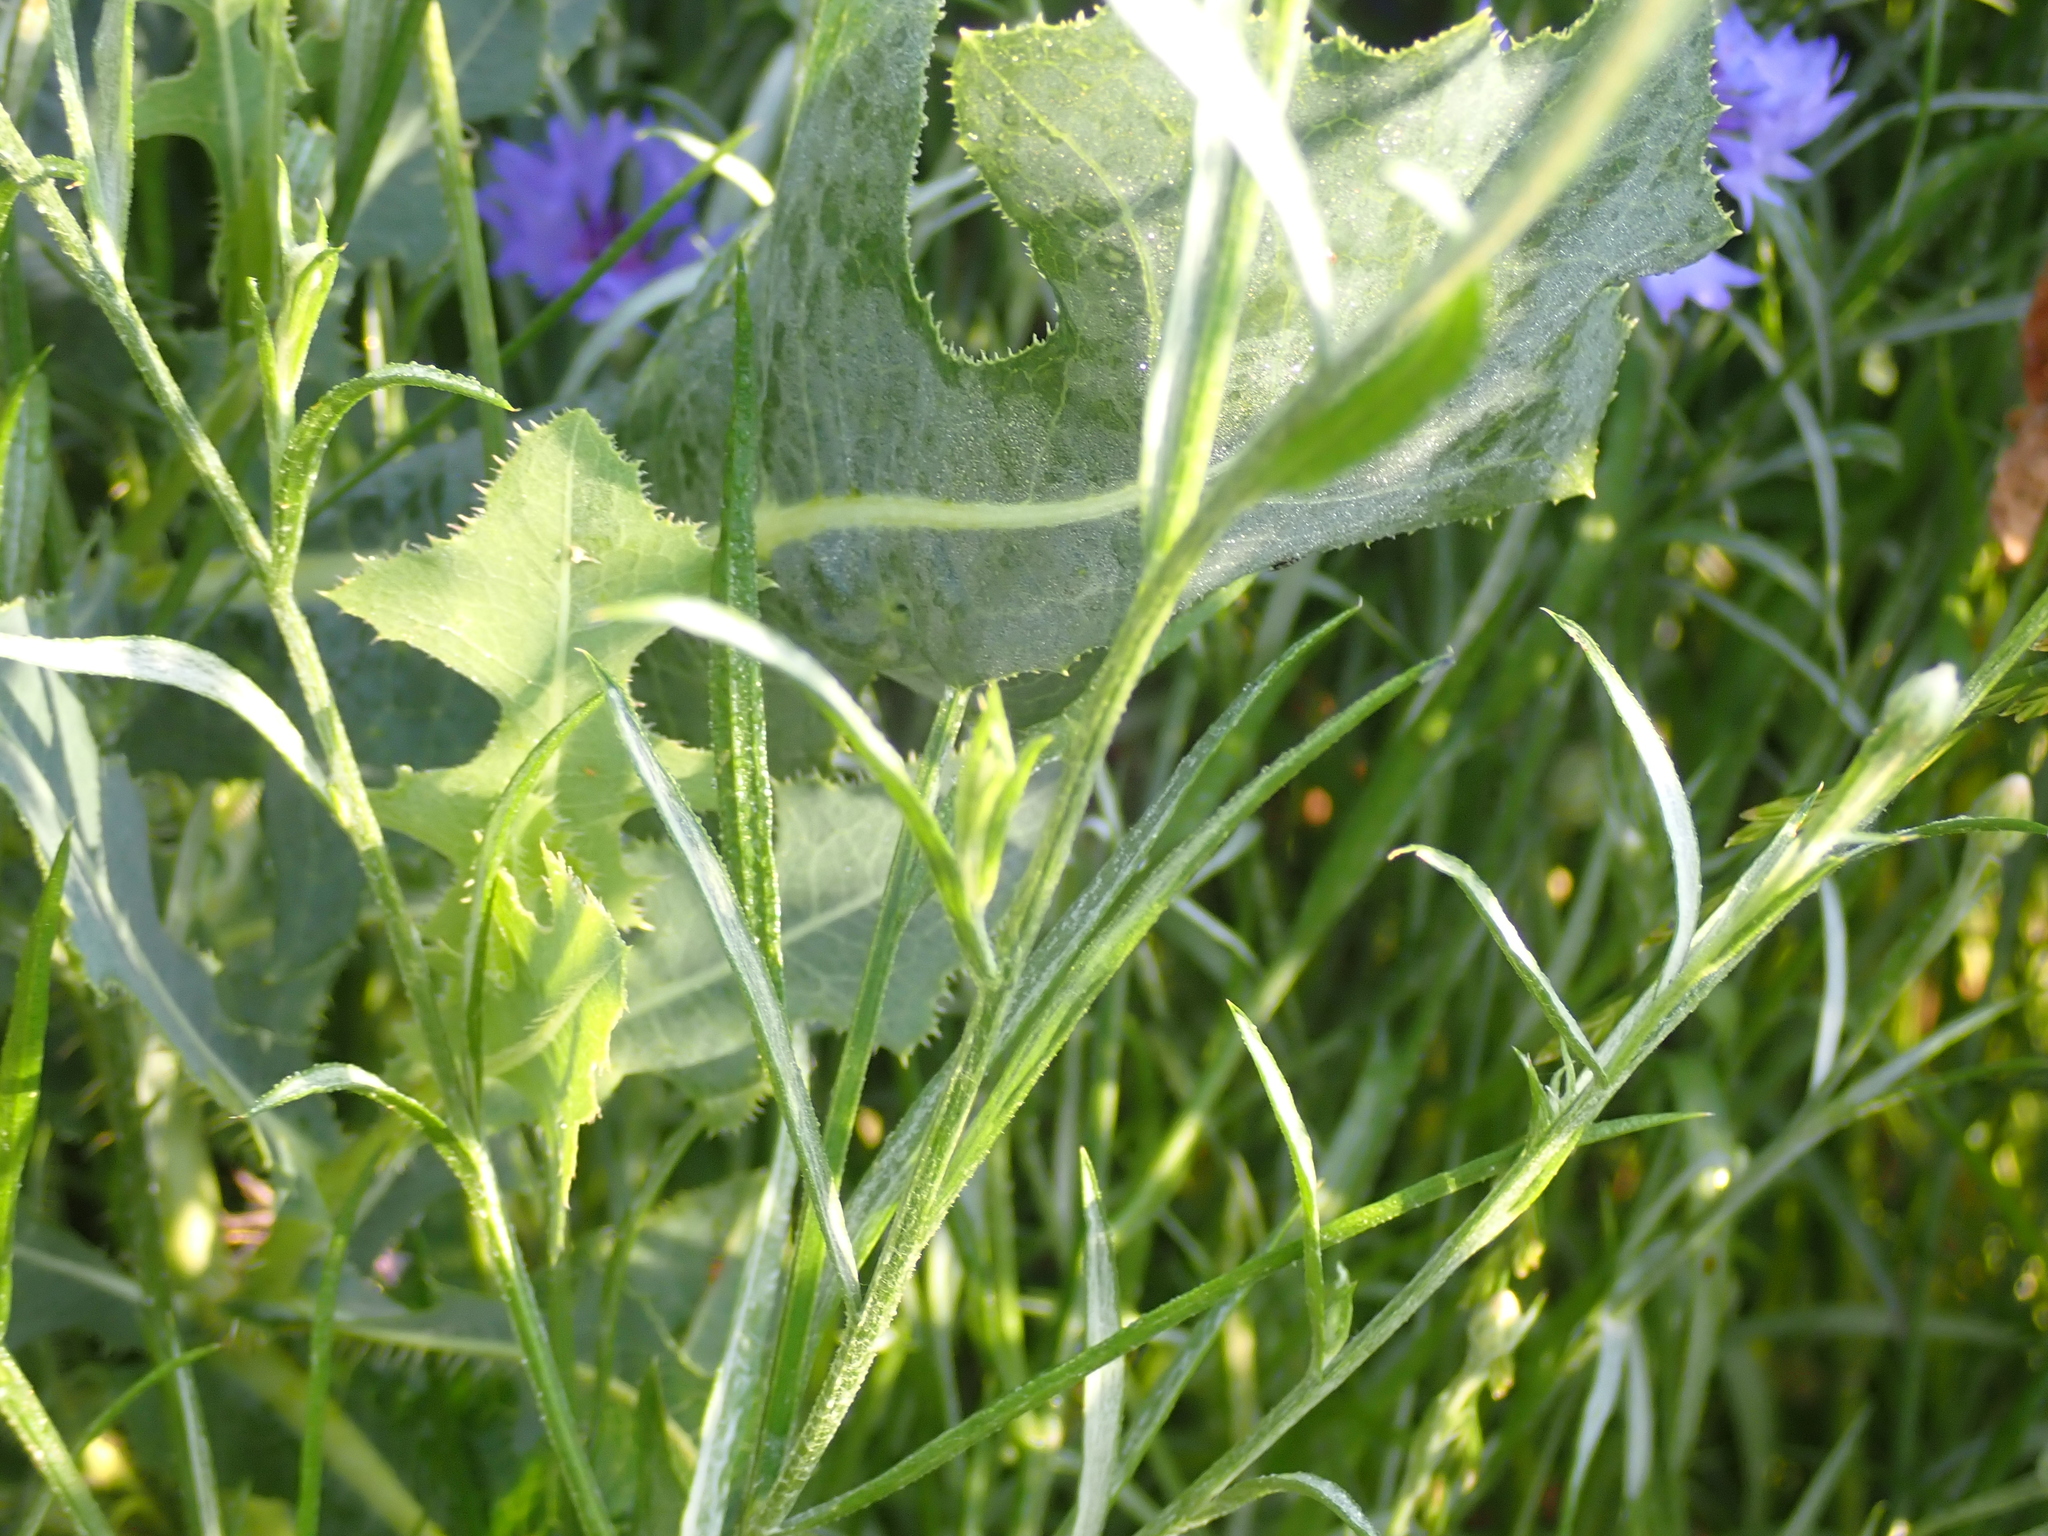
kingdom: Plantae
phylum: Tracheophyta
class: Magnoliopsida
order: Asterales
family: Asteraceae
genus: Centaurea
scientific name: Centaurea cyanus
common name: Cornflower
